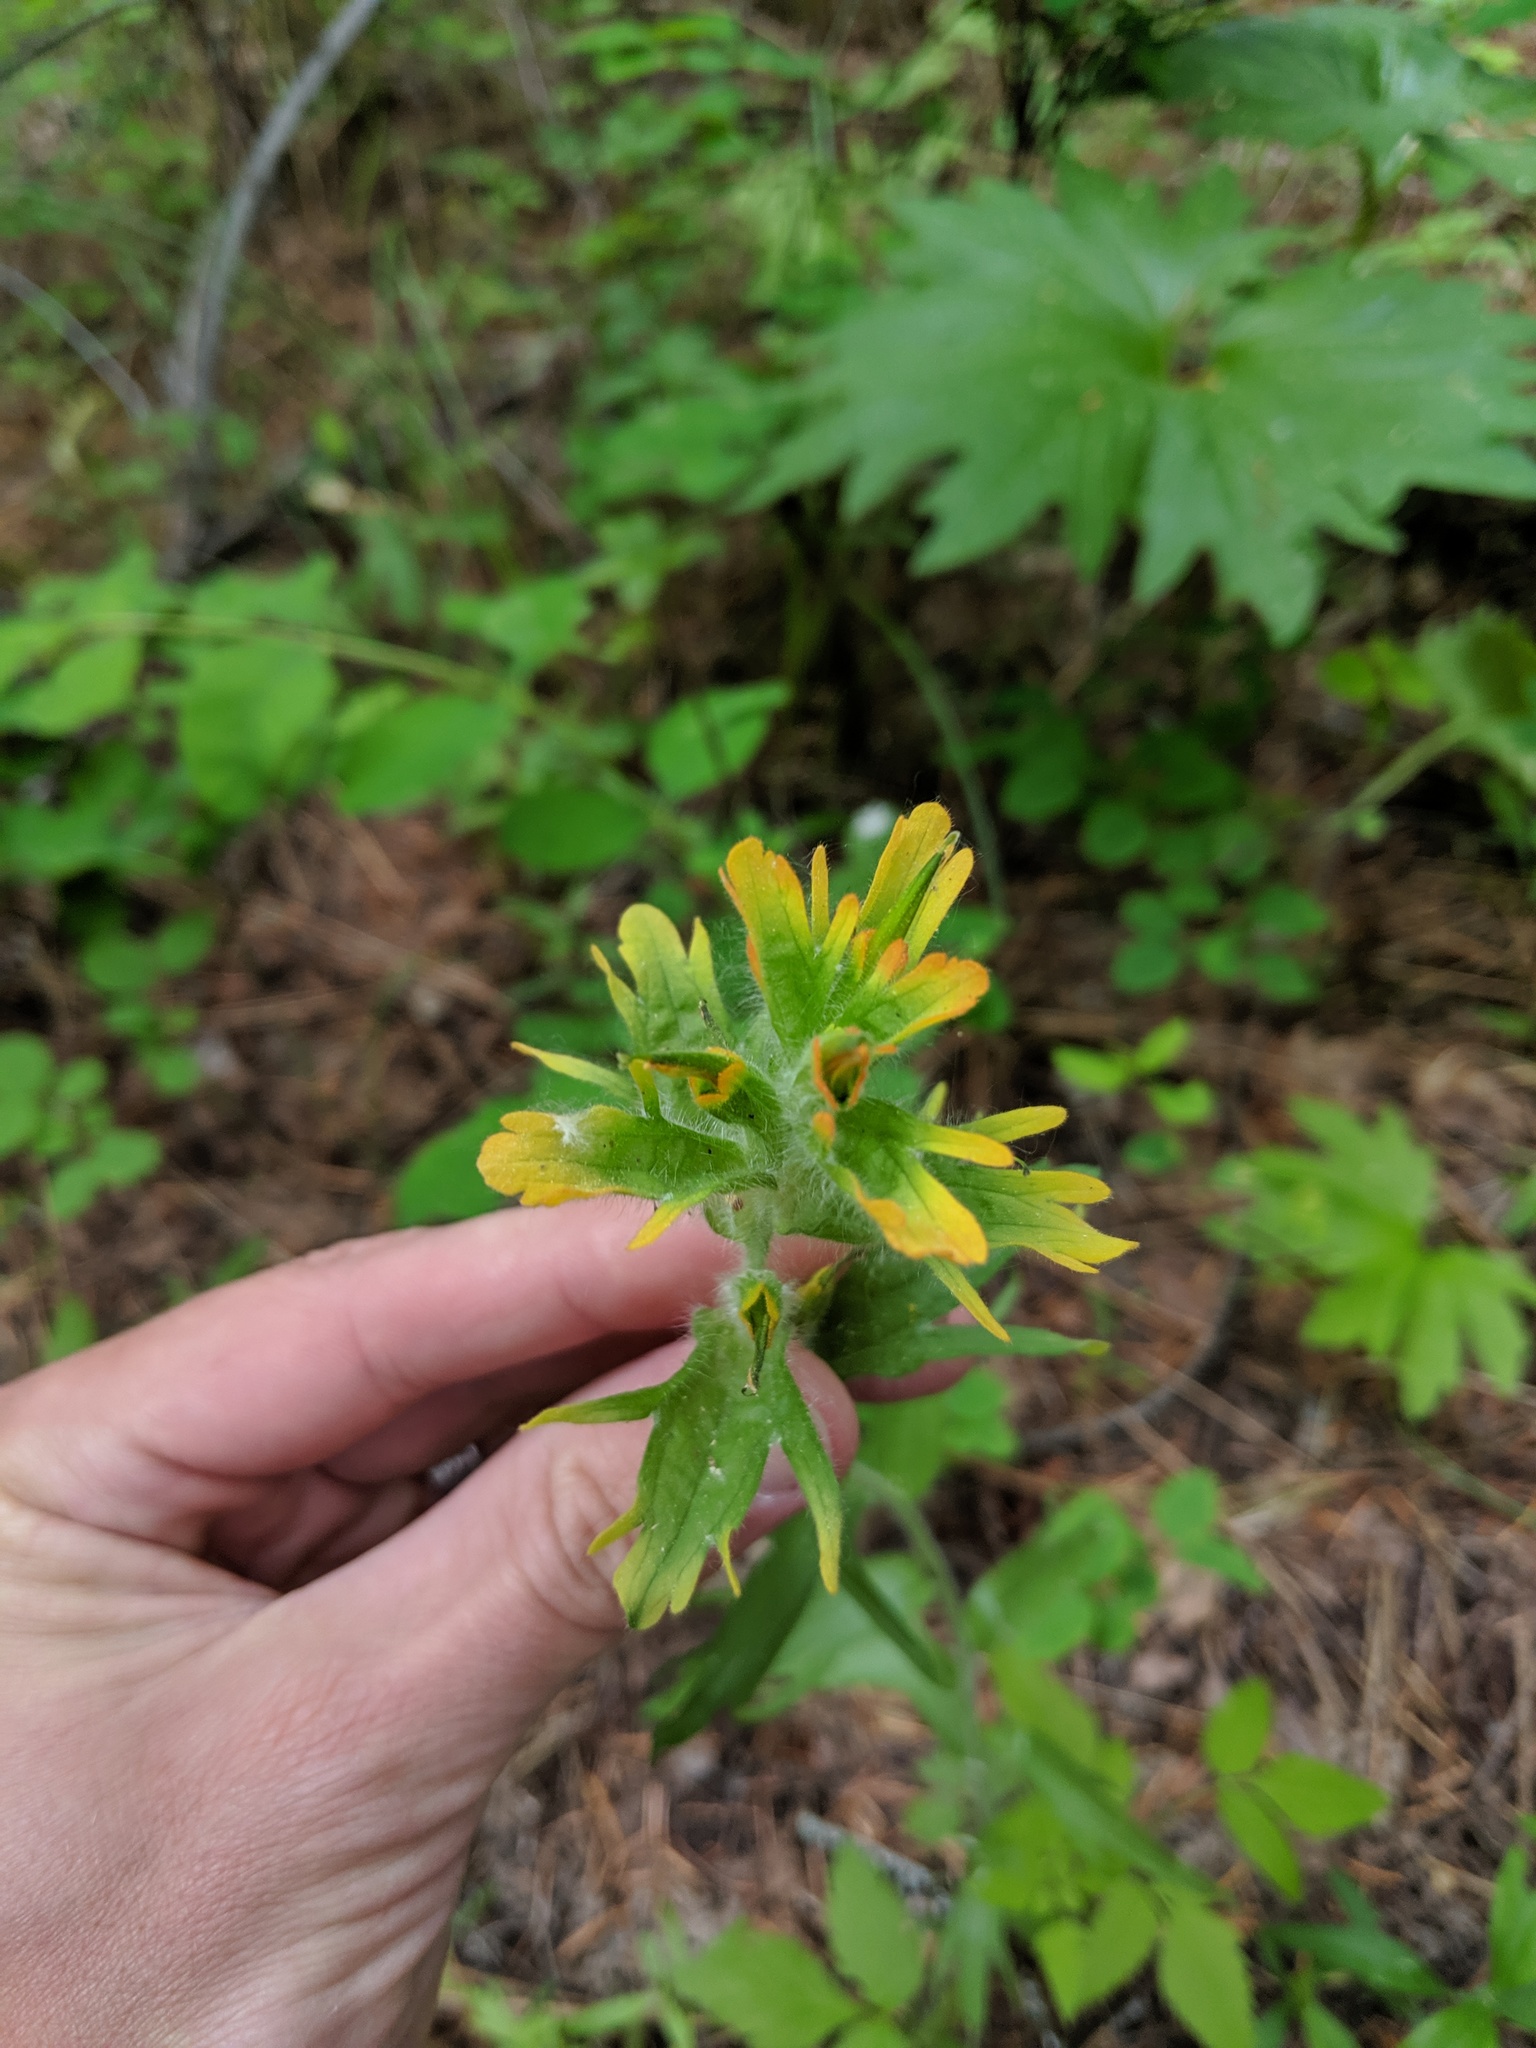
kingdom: Plantae
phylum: Tracheophyta
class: Magnoliopsida
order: Lamiales
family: Orobanchaceae
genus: Castilleja
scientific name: Castilleja hispida
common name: Bristly paintbrush
